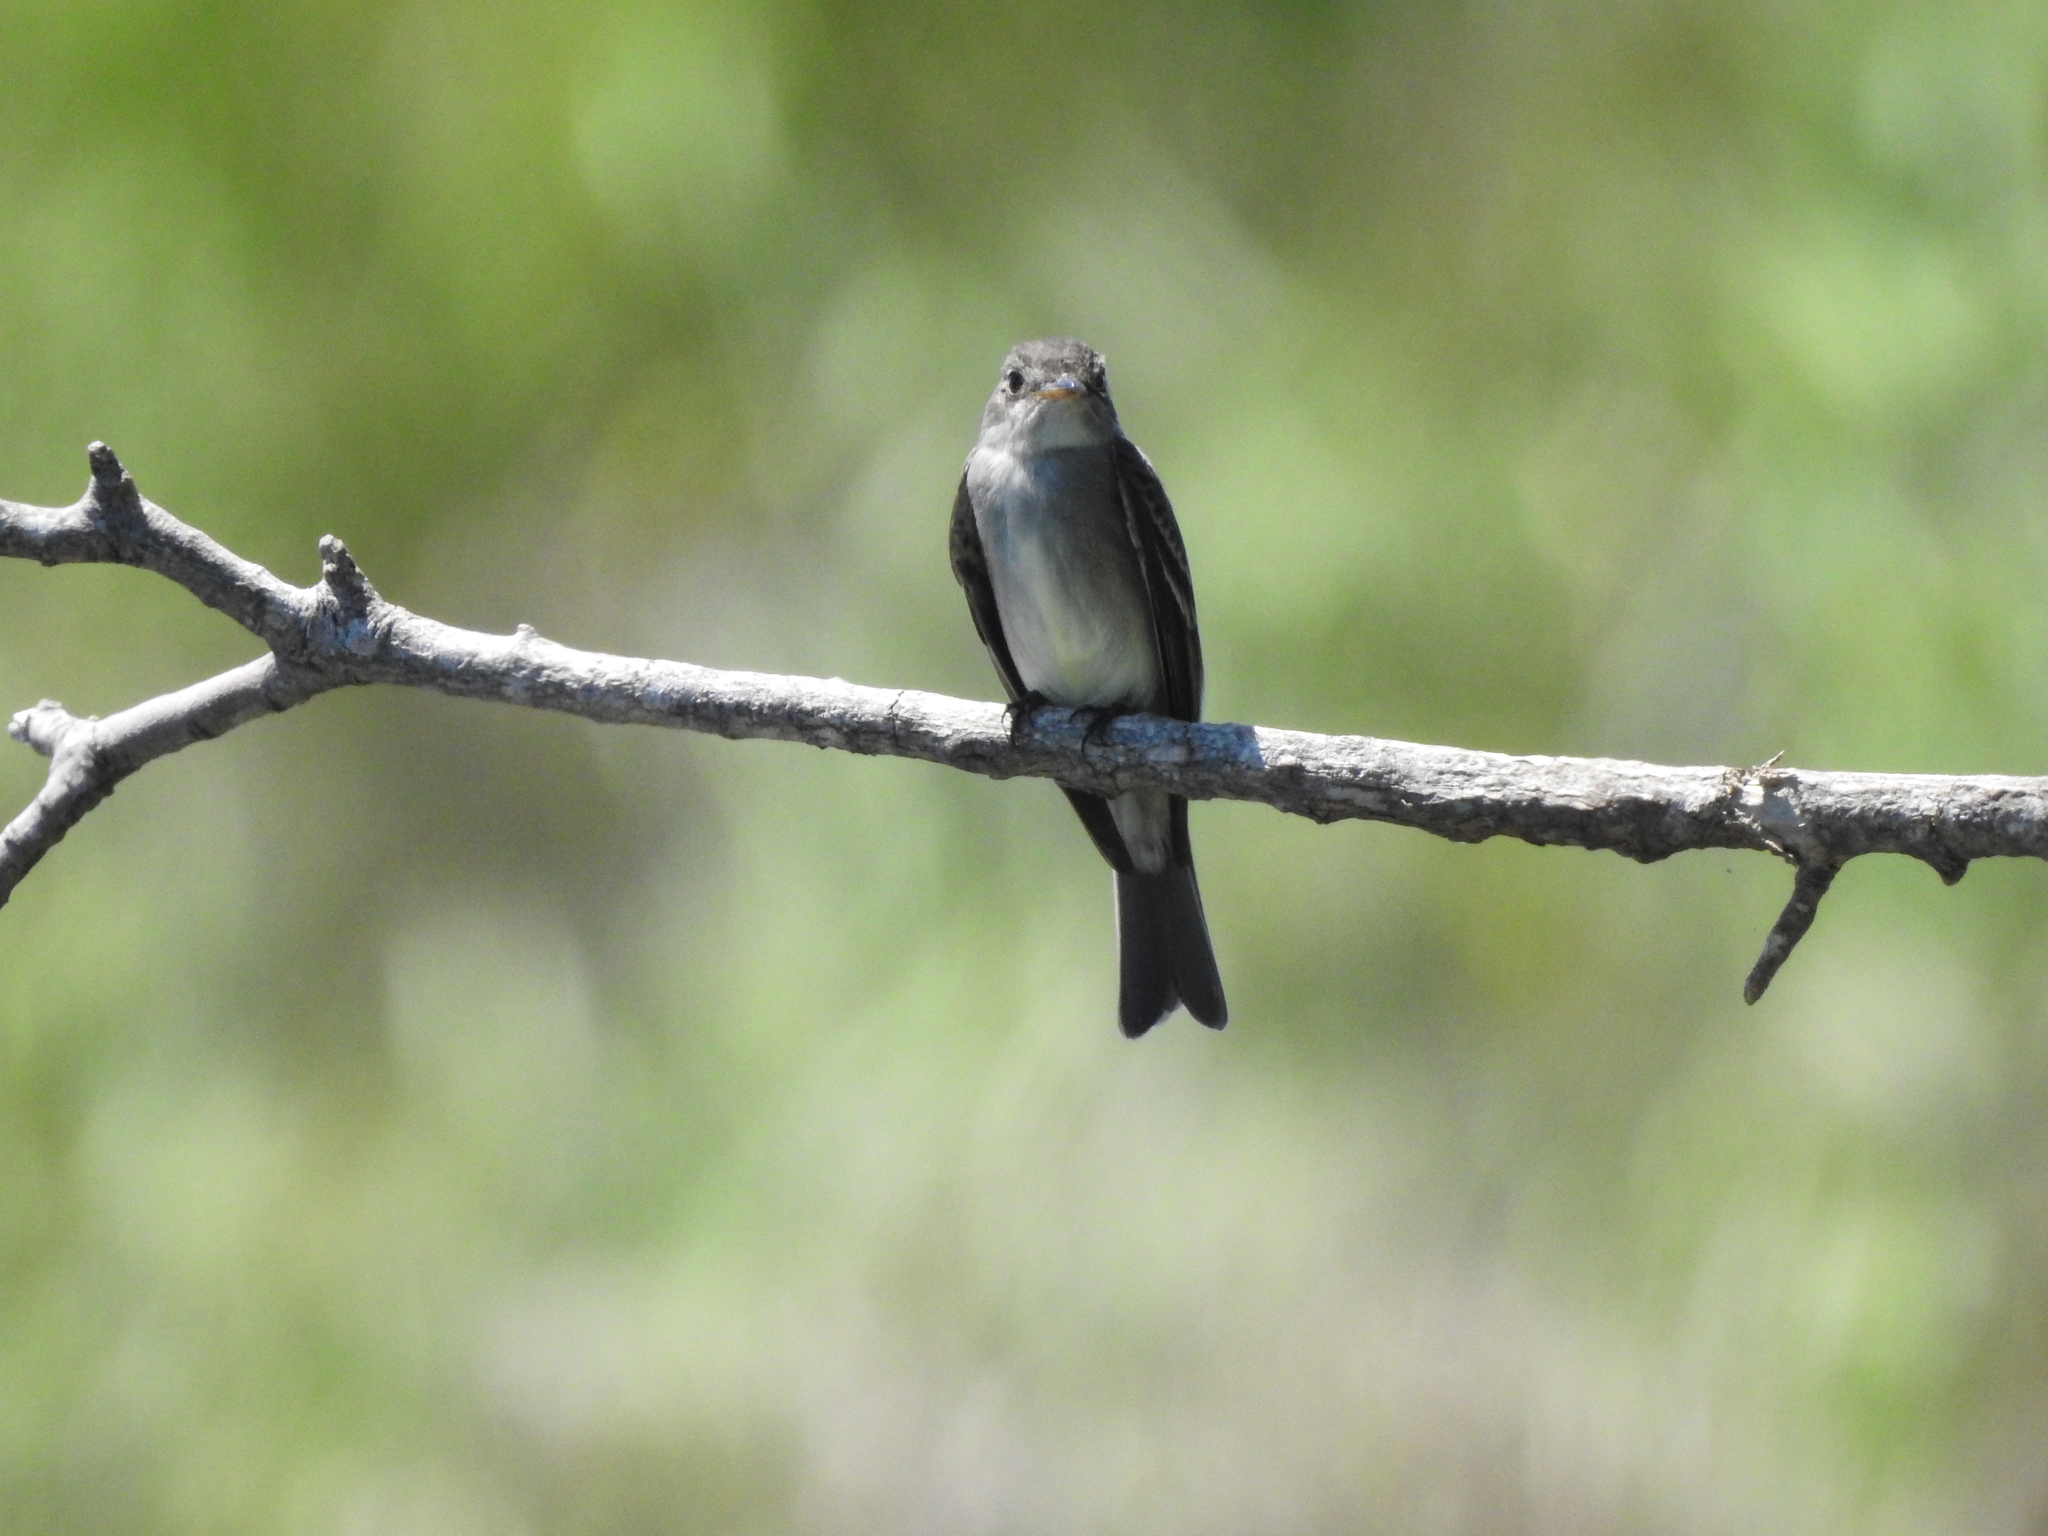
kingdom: Animalia
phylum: Chordata
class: Aves
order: Passeriformes
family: Tyrannidae
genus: Contopus
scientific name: Contopus virens
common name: Eastern wood-pewee
